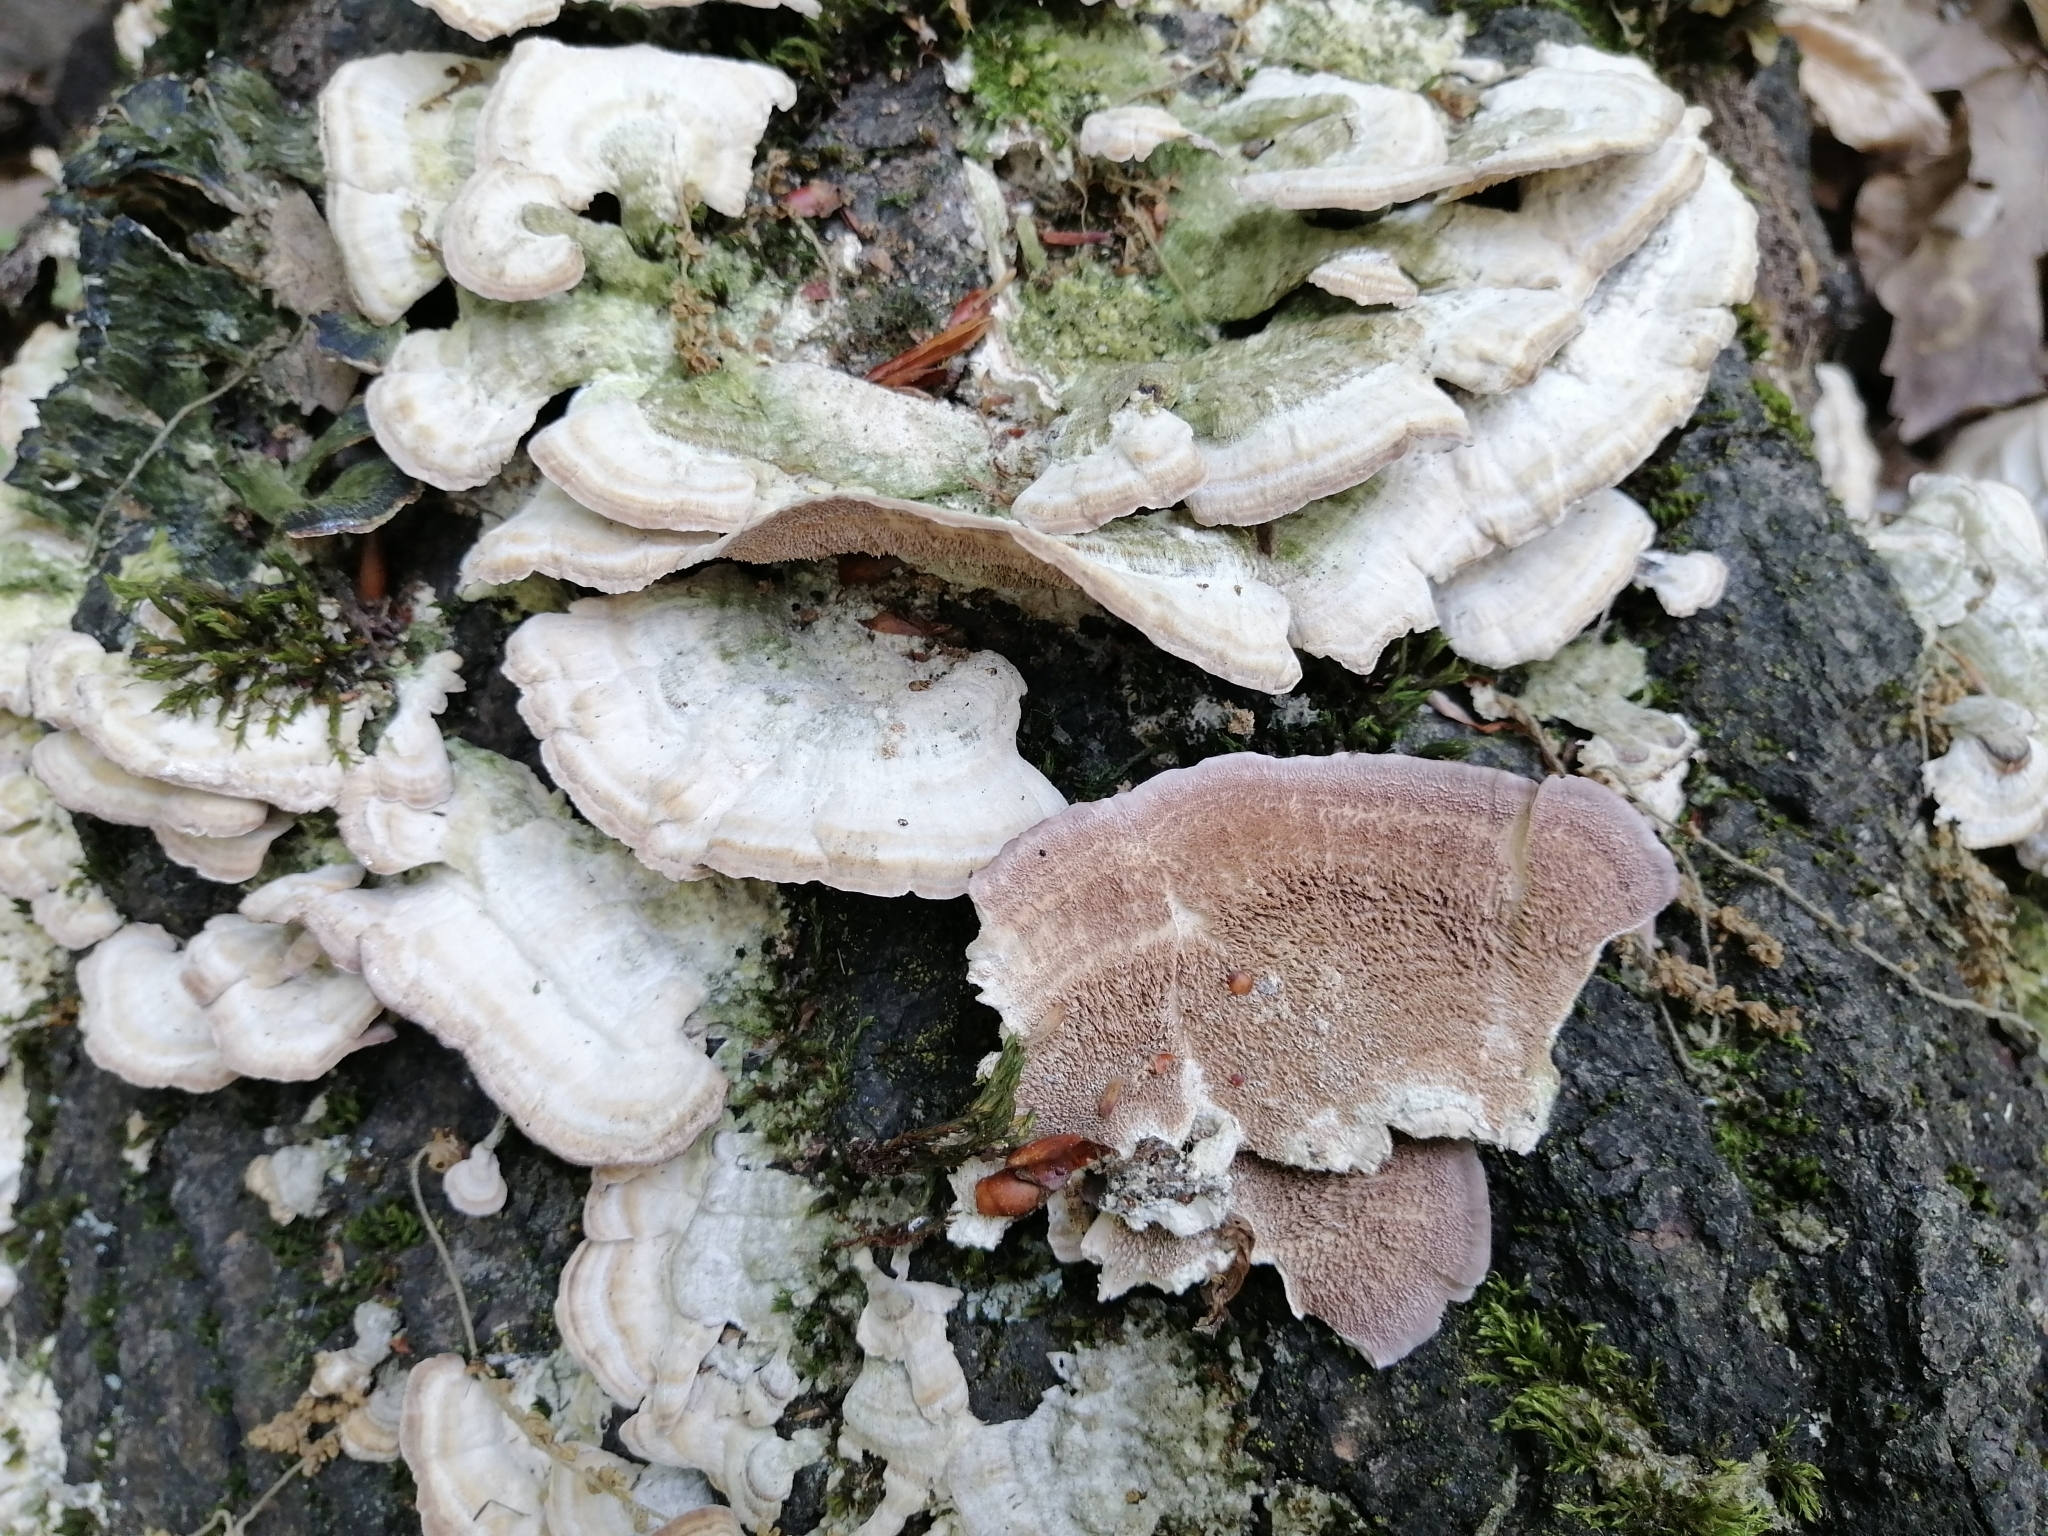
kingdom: Fungi
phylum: Basidiomycota
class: Agaricomycetes
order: Hymenochaetales
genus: Trichaptum
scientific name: Trichaptum biforme
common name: Violet-toothed polypore
